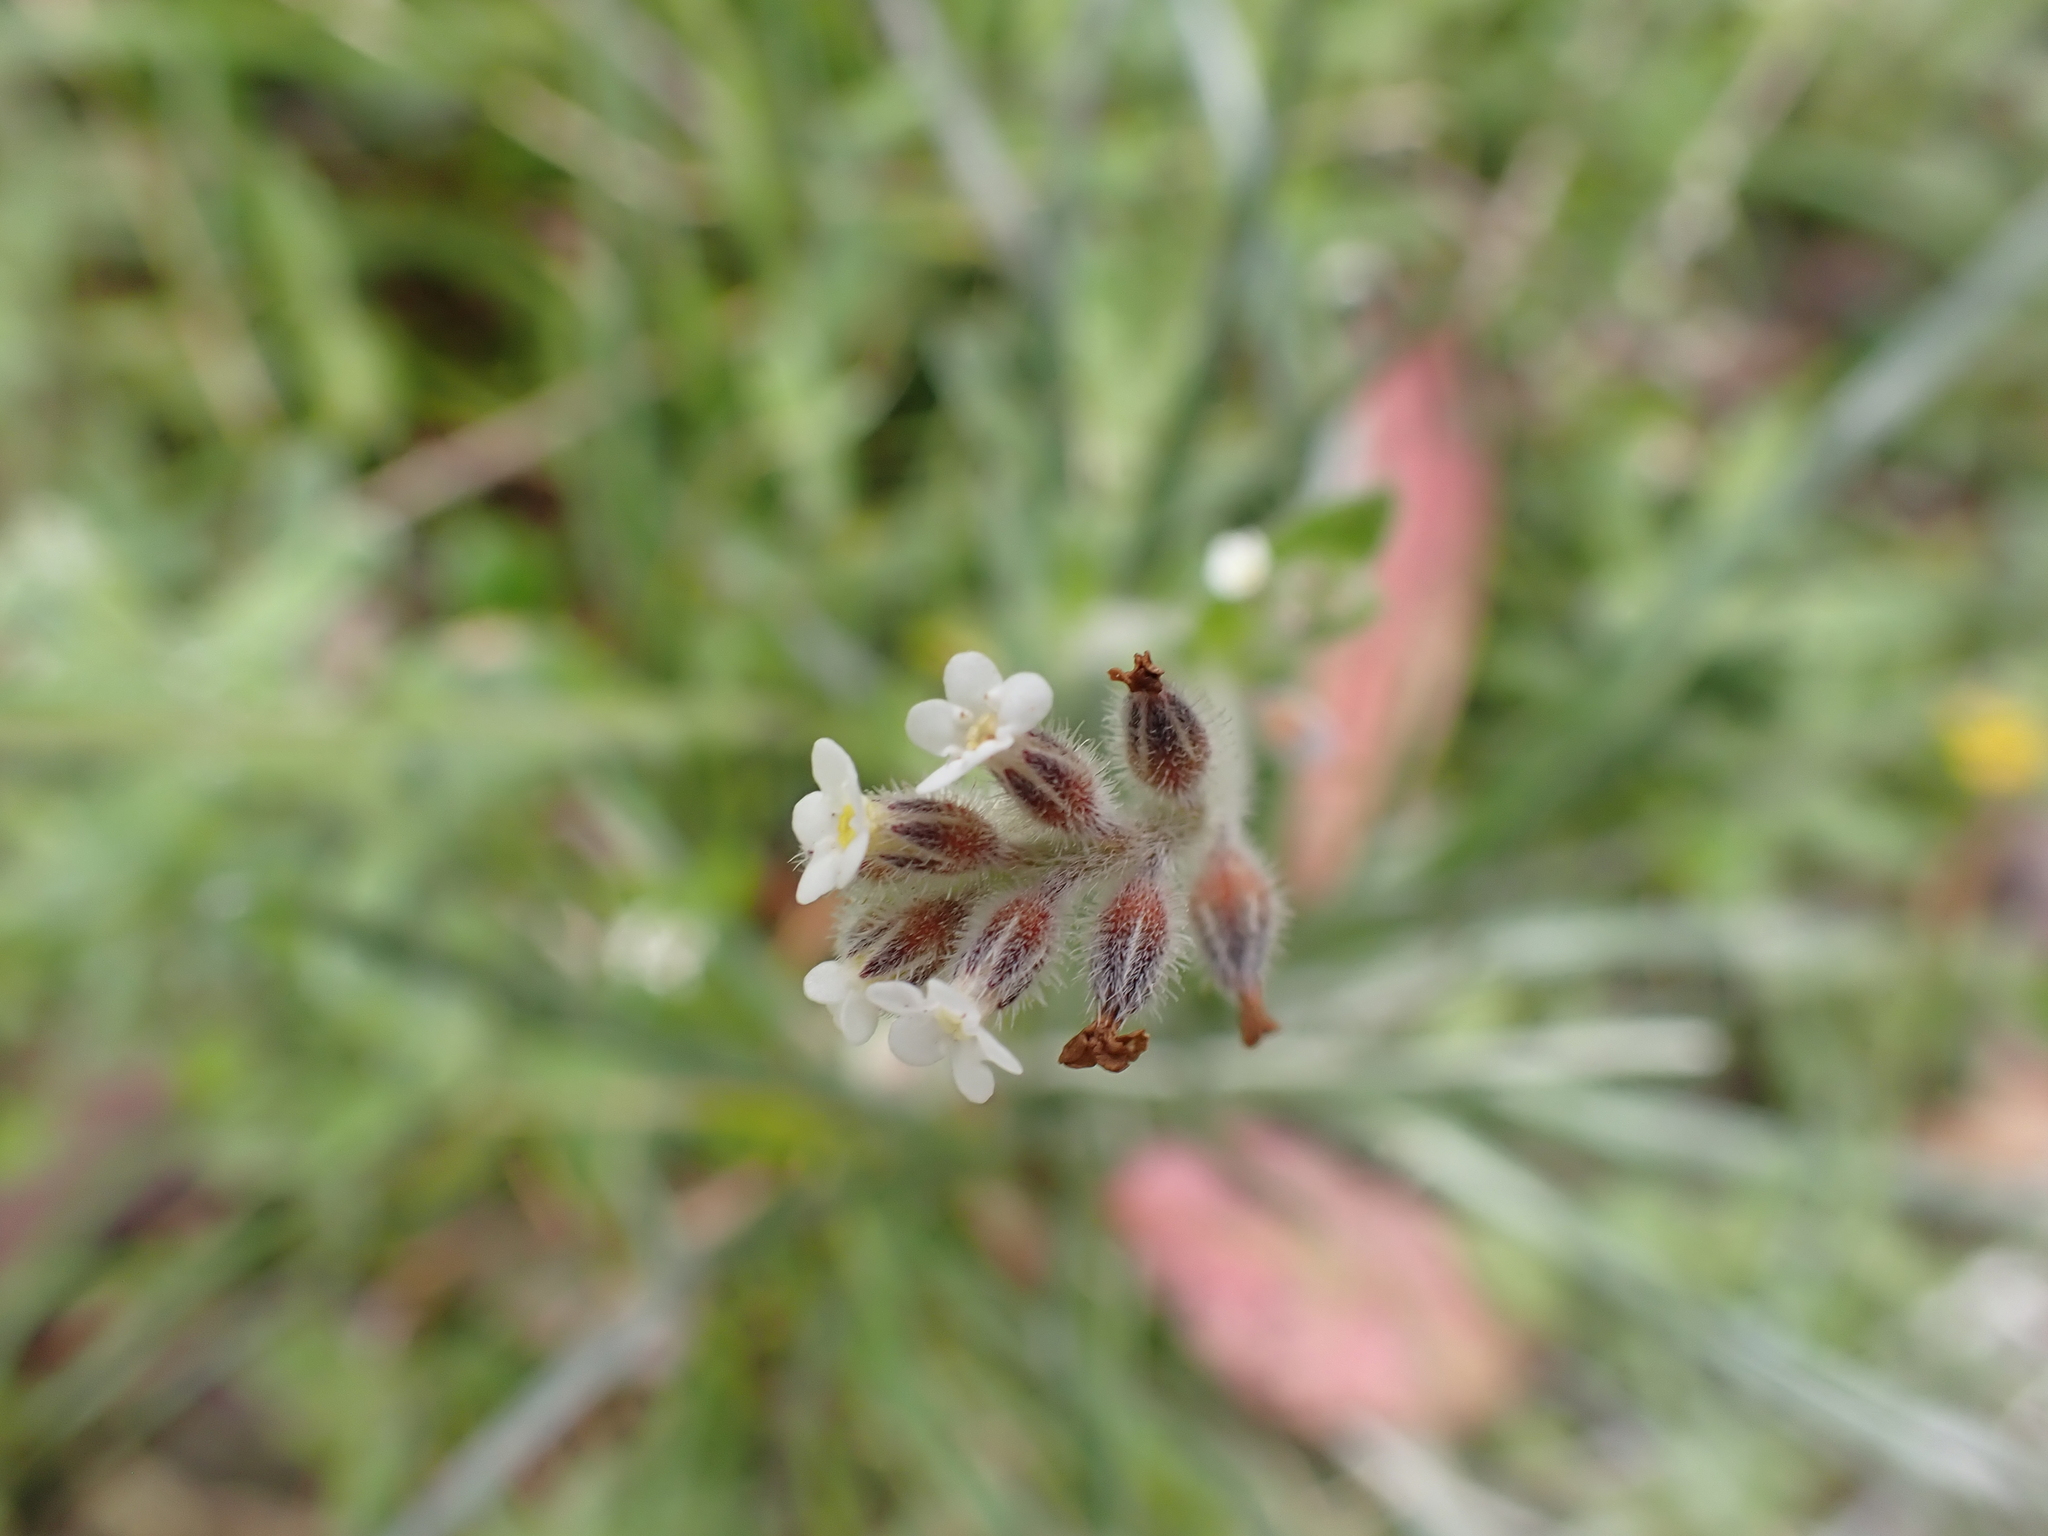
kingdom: Plantae
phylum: Tracheophyta
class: Magnoliopsida
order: Boraginales
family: Boraginaceae
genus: Myosotis
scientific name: Myosotis australis
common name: Australian forget-me-not
